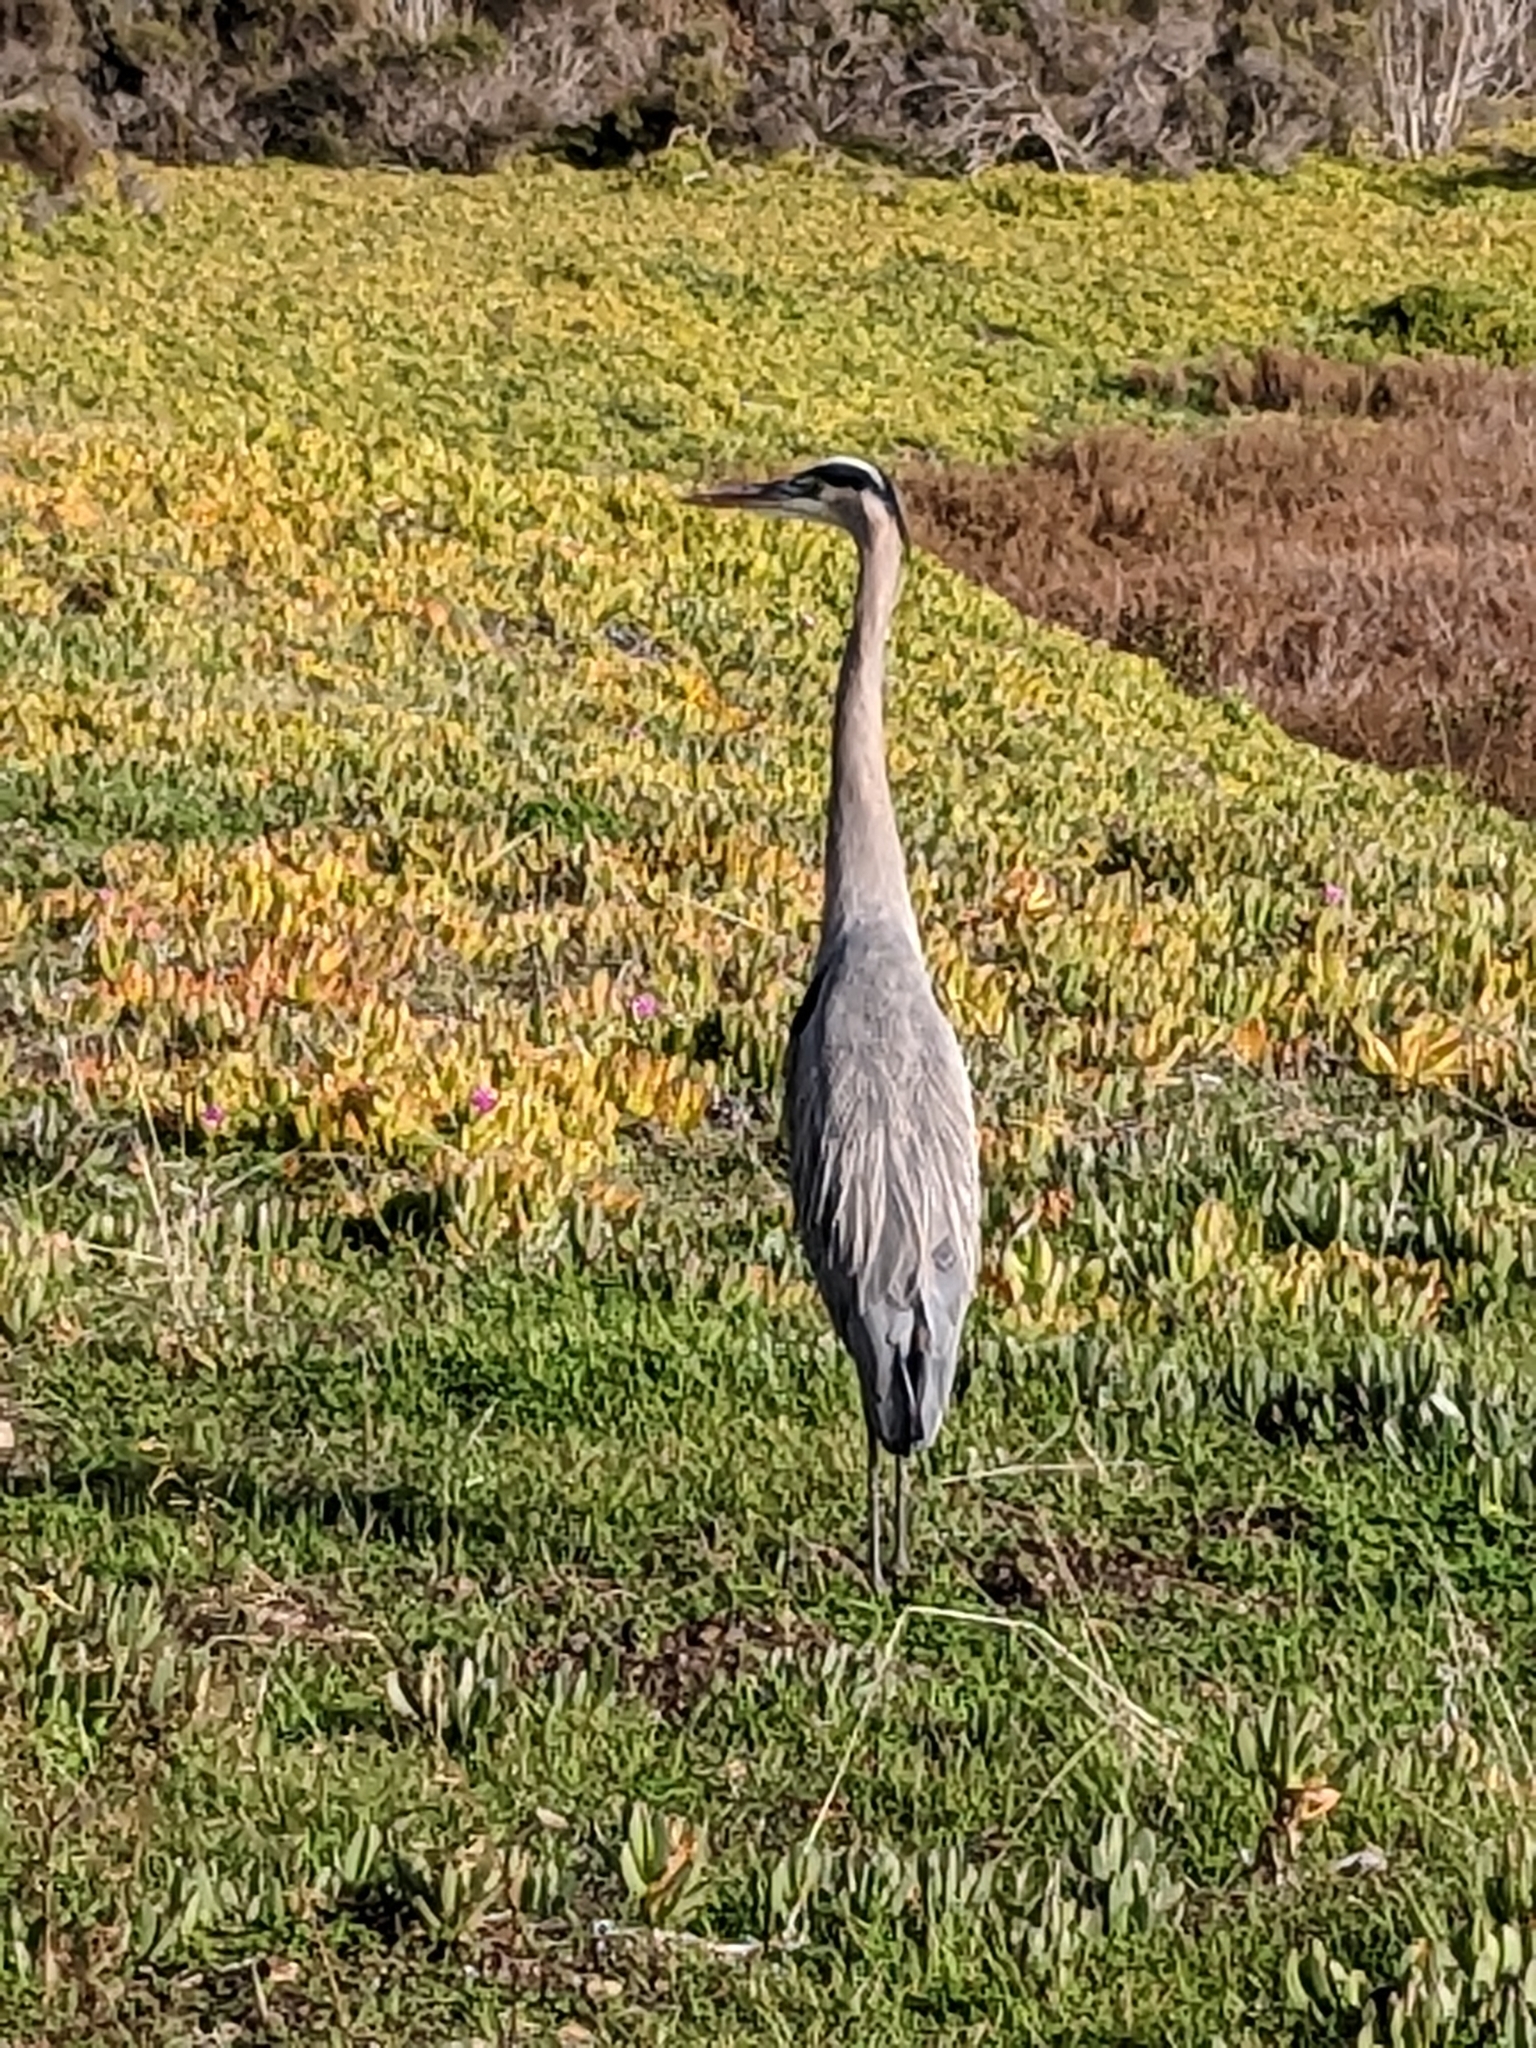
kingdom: Animalia
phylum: Chordata
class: Aves
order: Pelecaniformes
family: Ardeidae
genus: Ardea
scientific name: Ardea herodias
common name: Great blue heron
